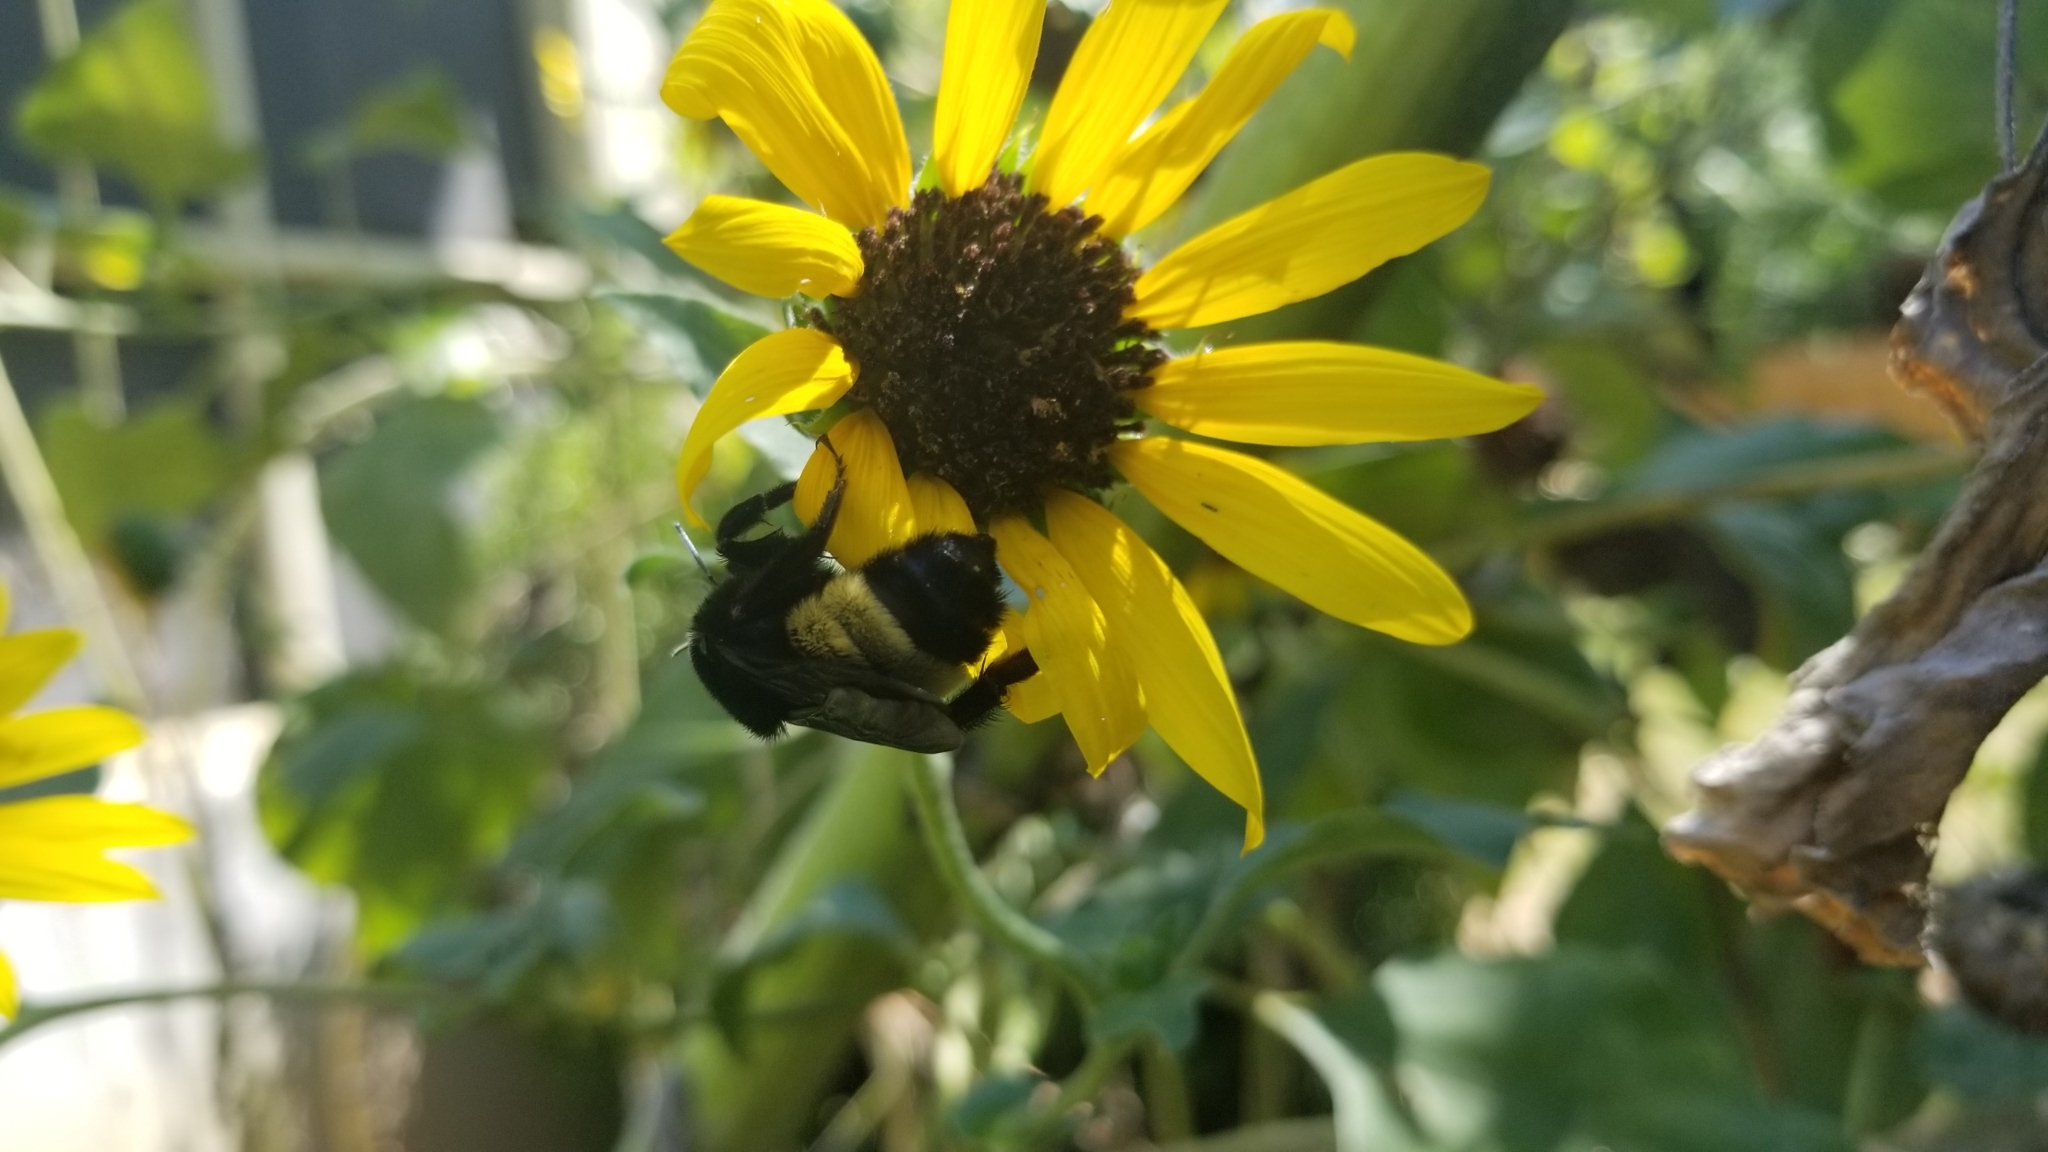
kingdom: Animalia
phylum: Arthropoda
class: Insecta
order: Hymenoptera
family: Apidae
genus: Bombus
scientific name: Bombus pensylvanicus
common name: Bumble bee
